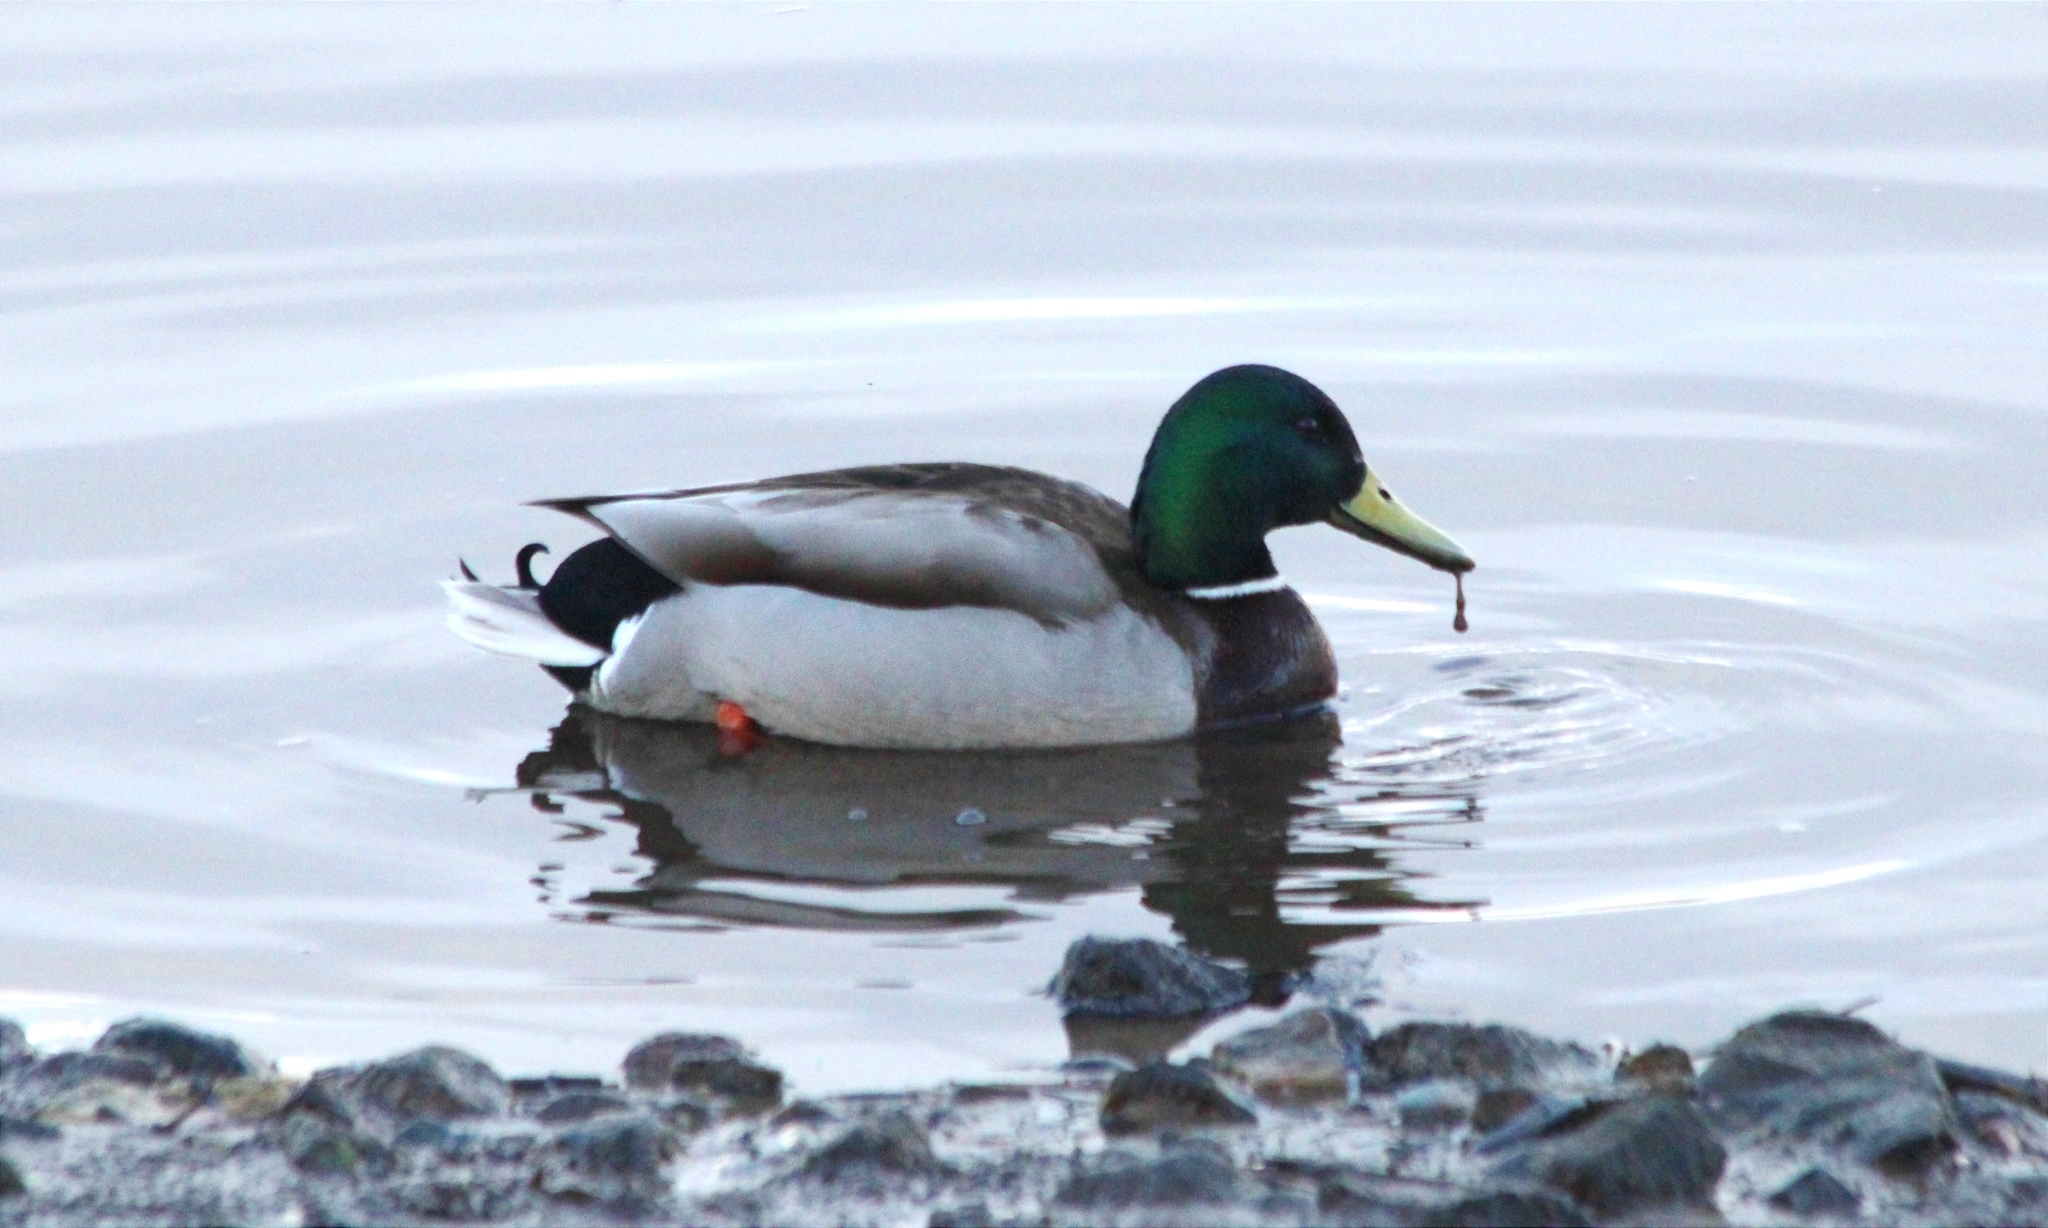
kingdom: Animalia
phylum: Chordata
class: Aves
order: Anseriformes
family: Anatidae
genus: Anas
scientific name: Anas platyrhynchos
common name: Mallard
